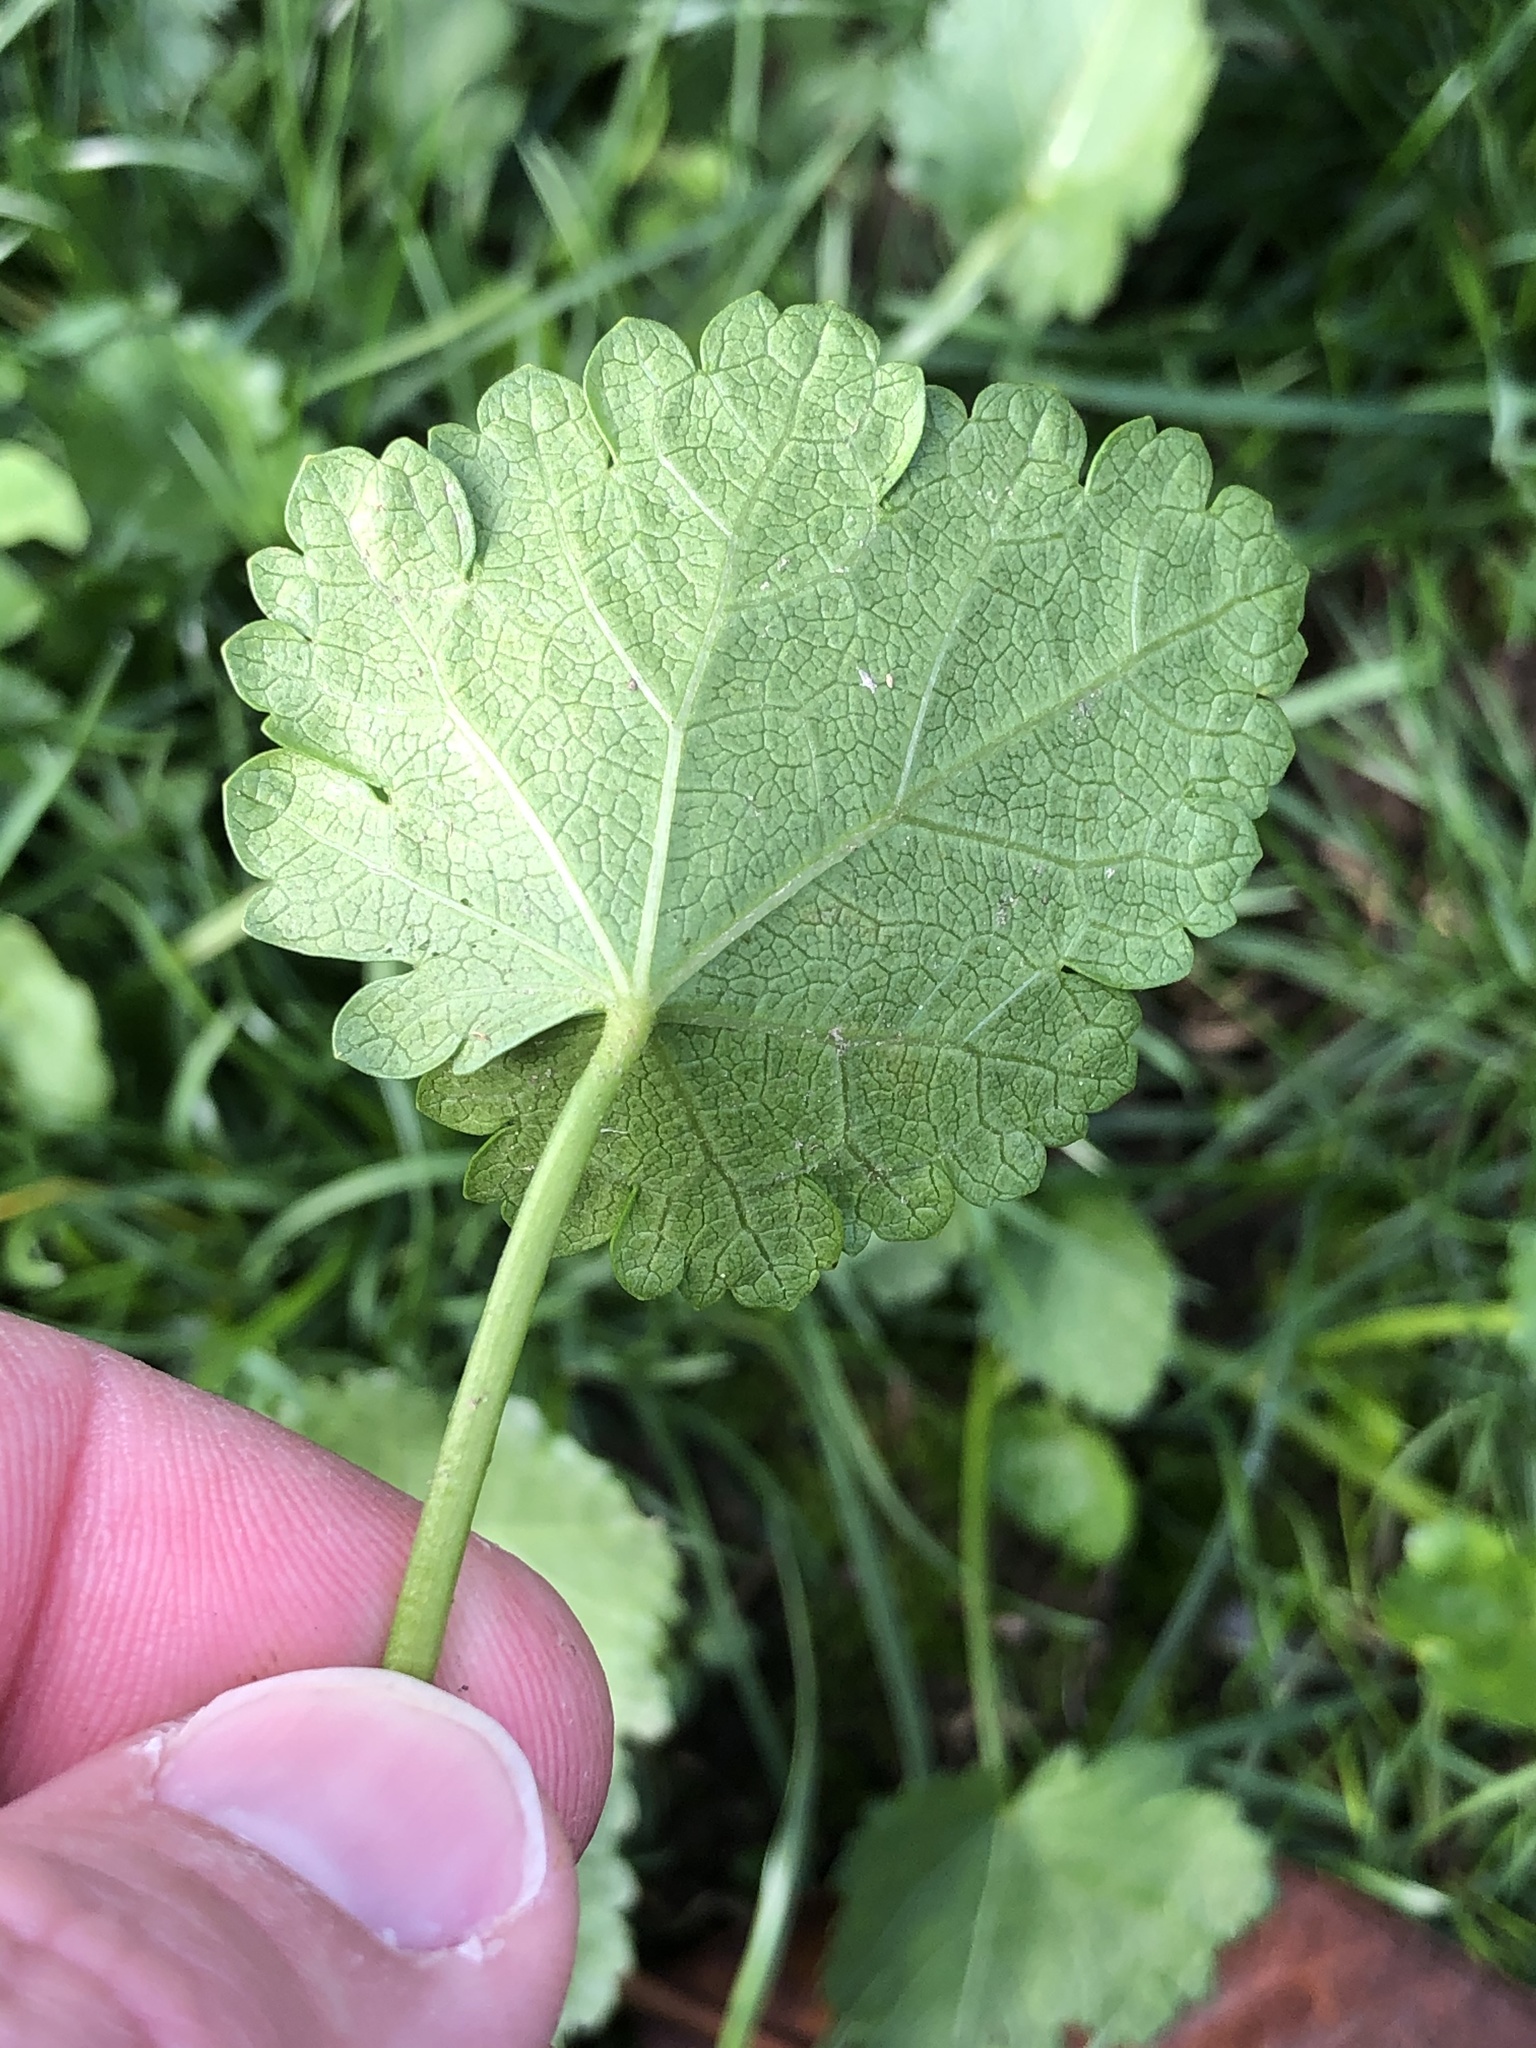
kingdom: Plantae
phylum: Tracheophyta
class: Magnoliopsida
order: Malvales
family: Malvaceae
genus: Modiola
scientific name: Modiola caroliniana
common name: Carolina bristlemallow
